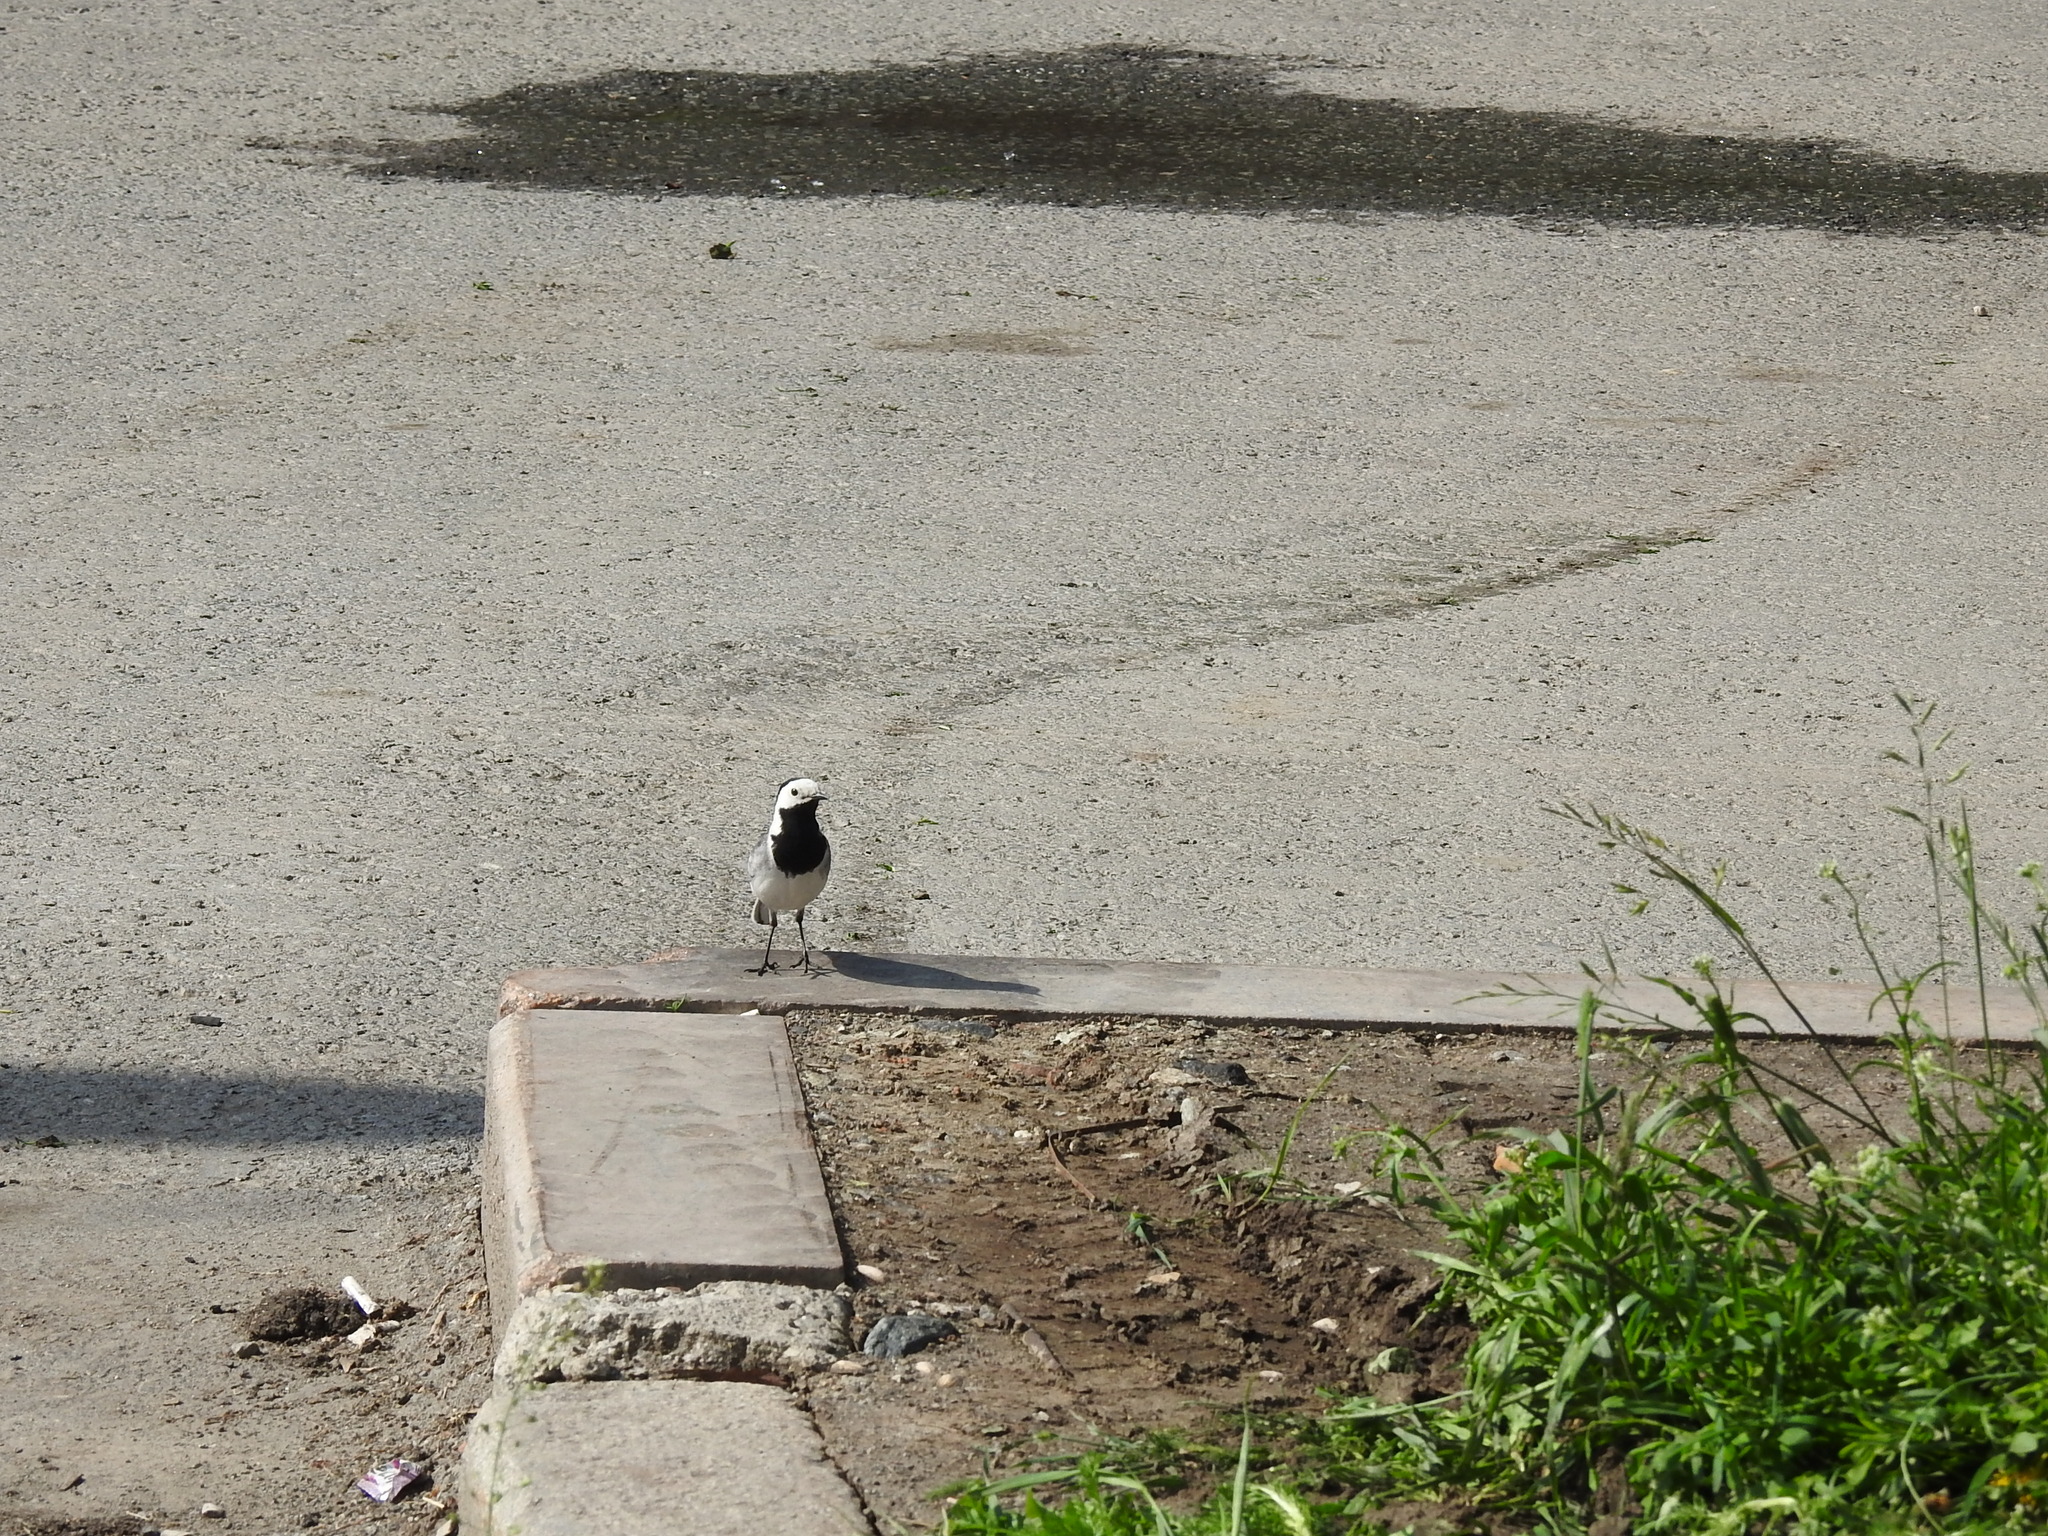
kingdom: Animalia
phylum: Chordata
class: Aves
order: Passeriformes
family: Motacillidae
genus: Motacilla
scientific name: Motacilla alba
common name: White wagtail
